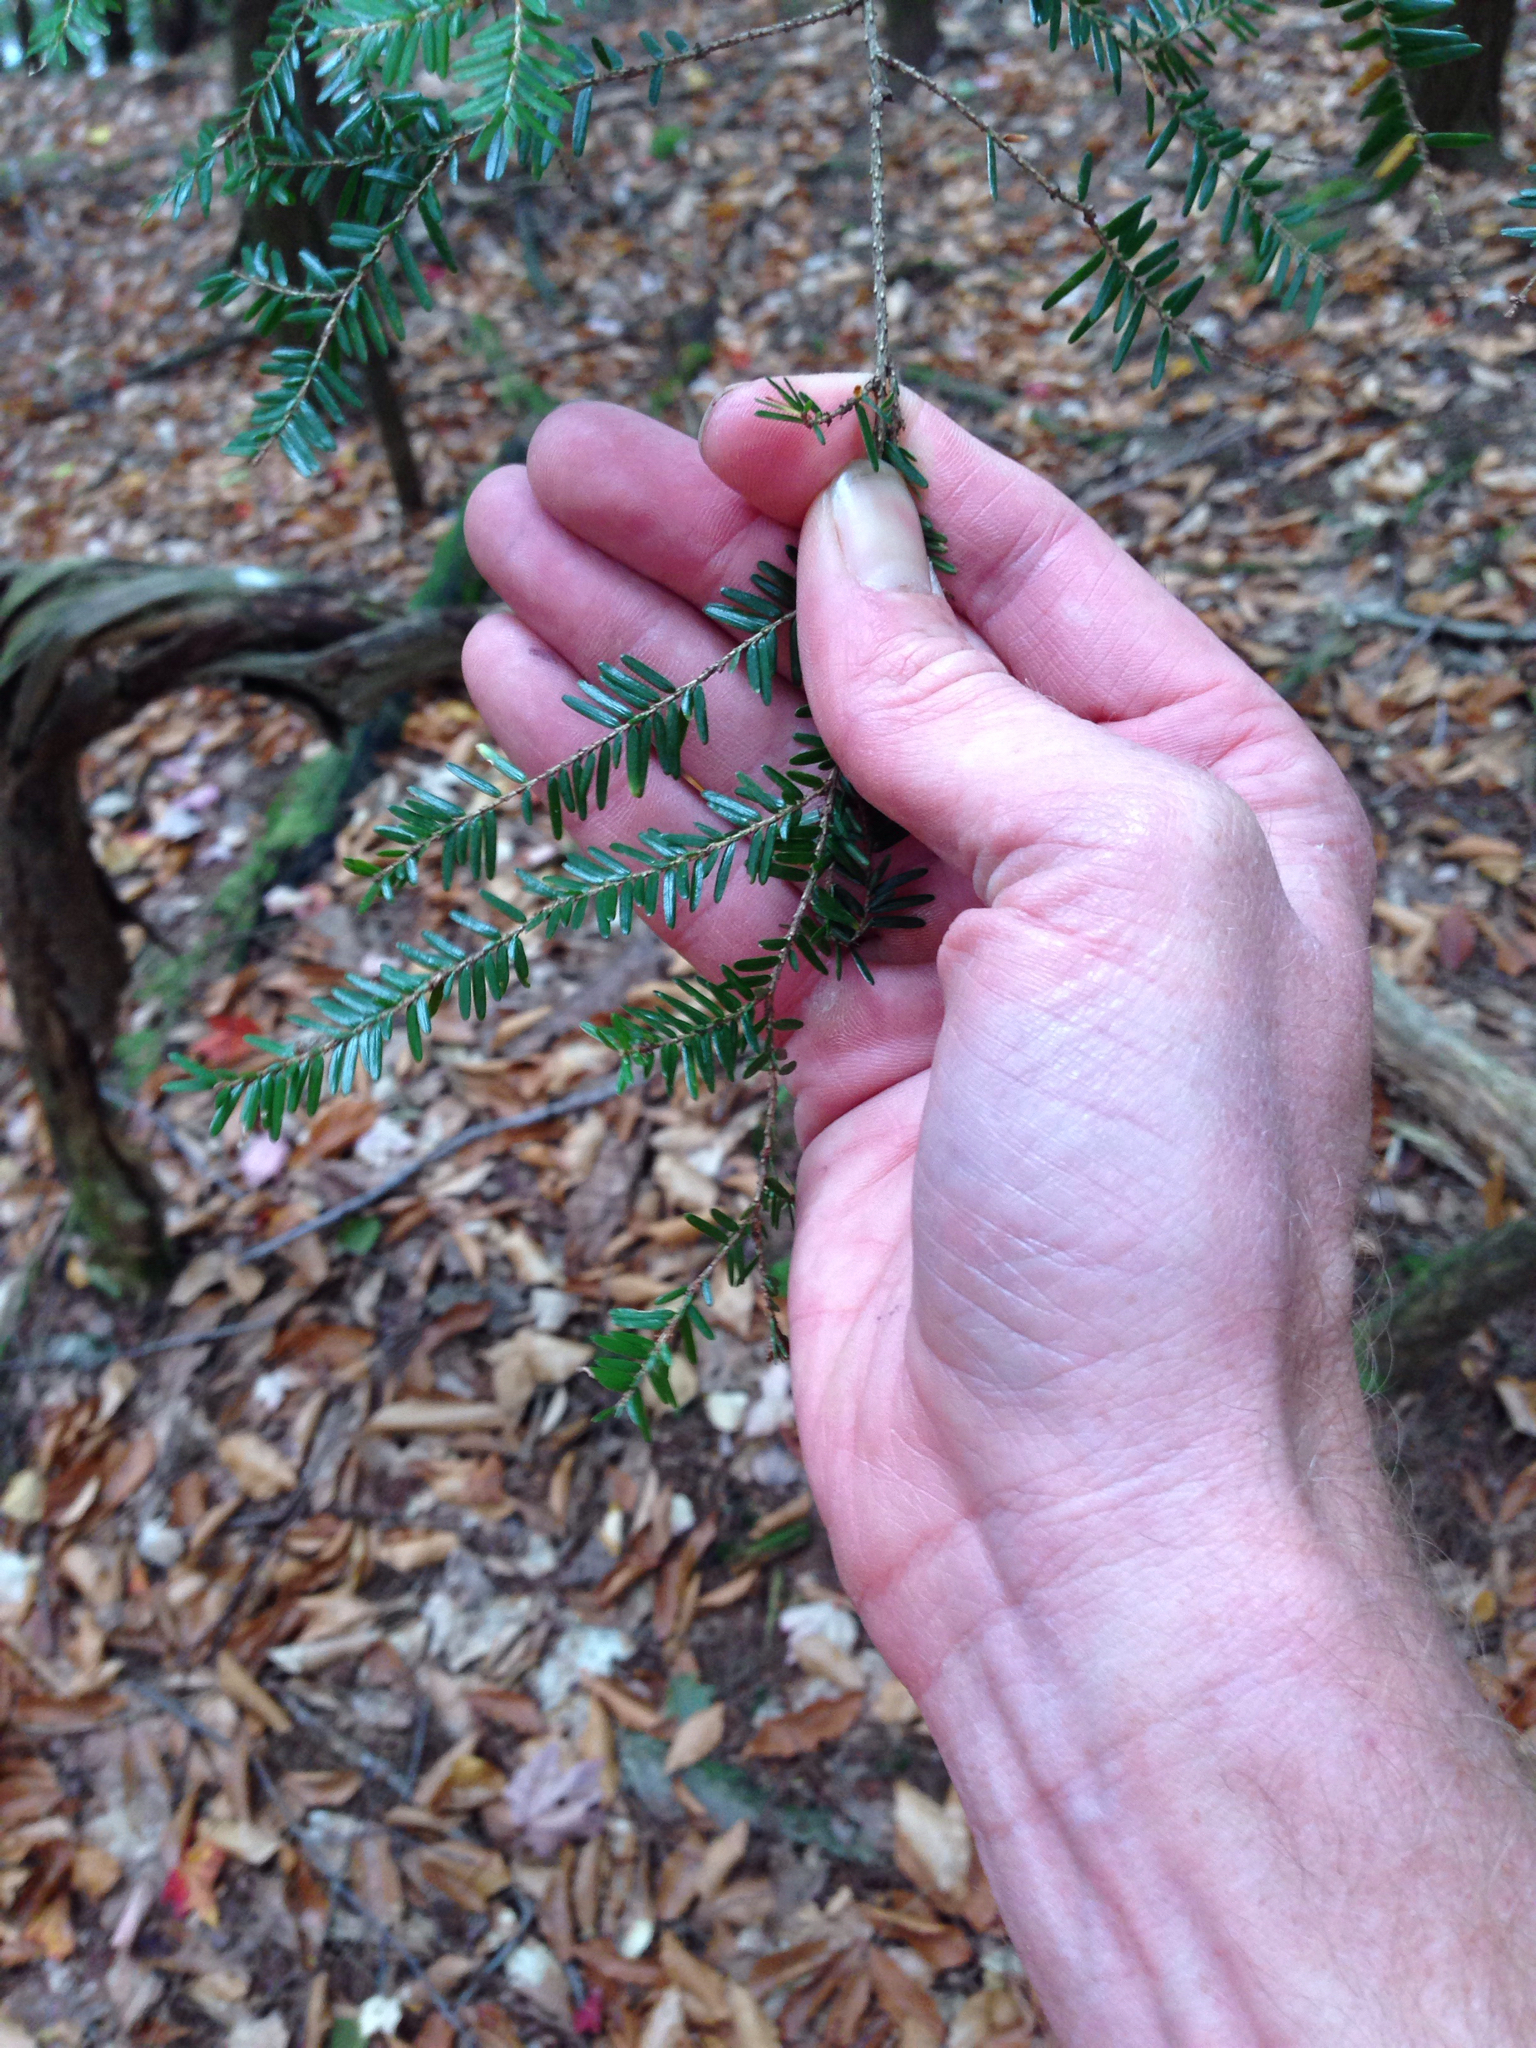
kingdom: Plantae
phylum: Tracheophyta
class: Pinopsida
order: Pinales
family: Pinaceae
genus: Tsuga
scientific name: Tsuga canadensis
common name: Eastern hemlock
